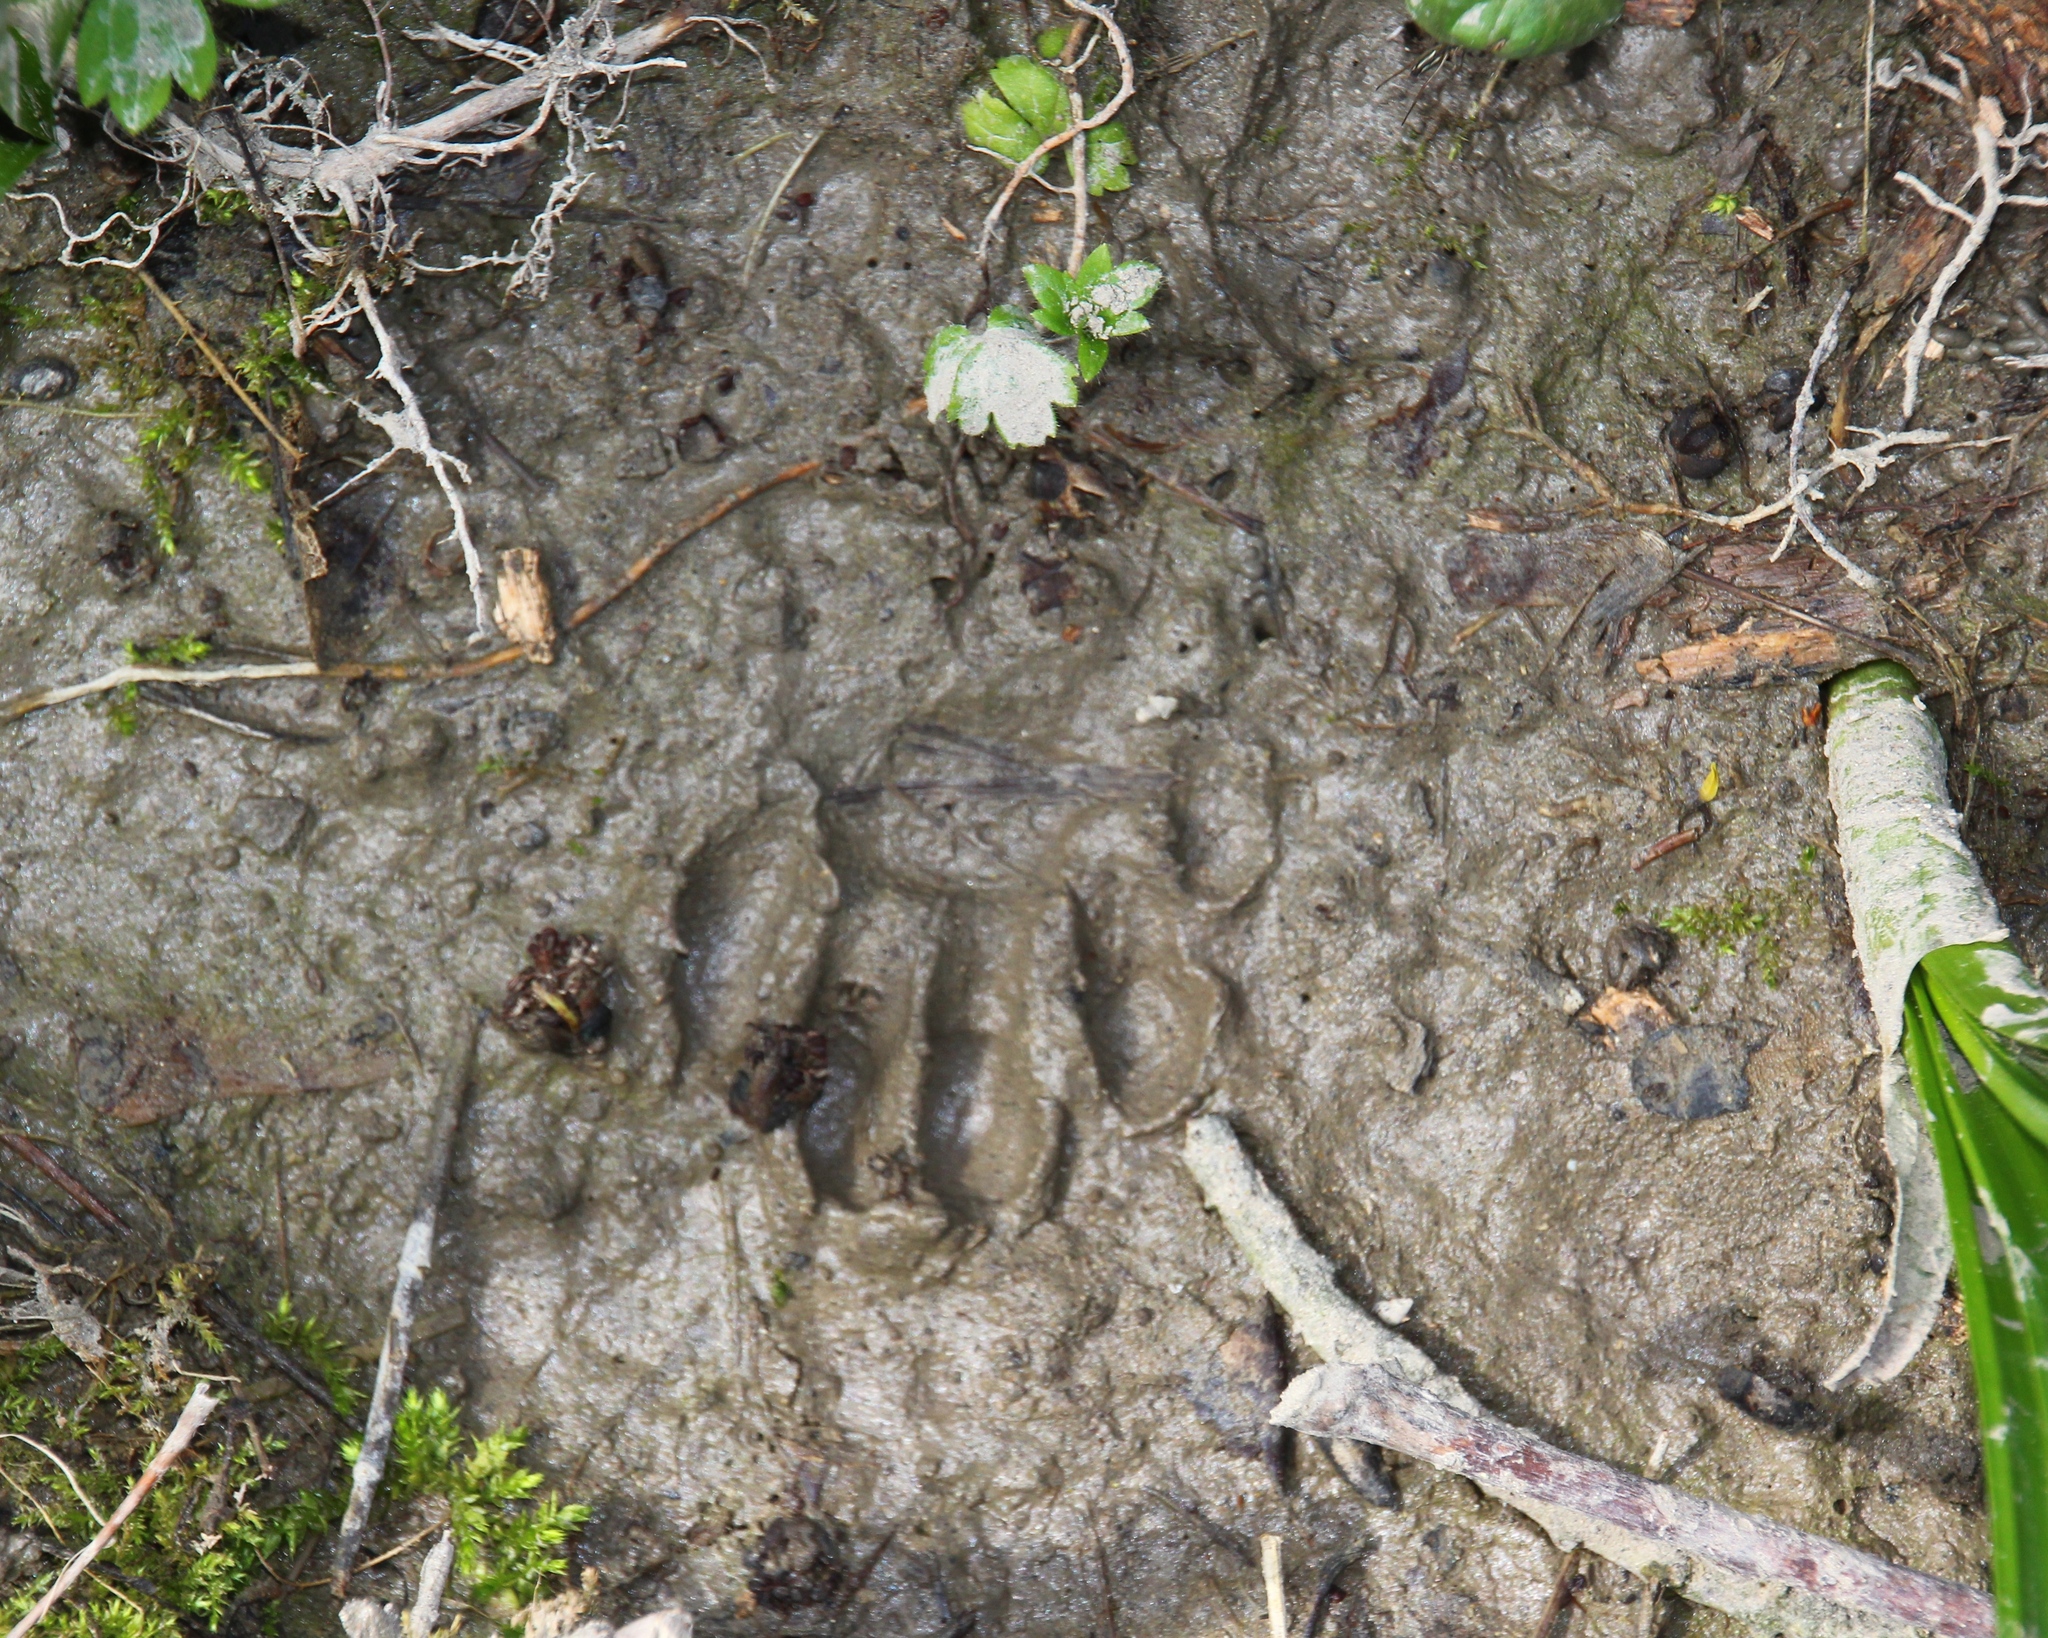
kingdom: Animalia
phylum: Chordata
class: Mammalia
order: Carnivora
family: Mustelidae
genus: Meles
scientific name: Meles meles
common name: Eurasian badger
